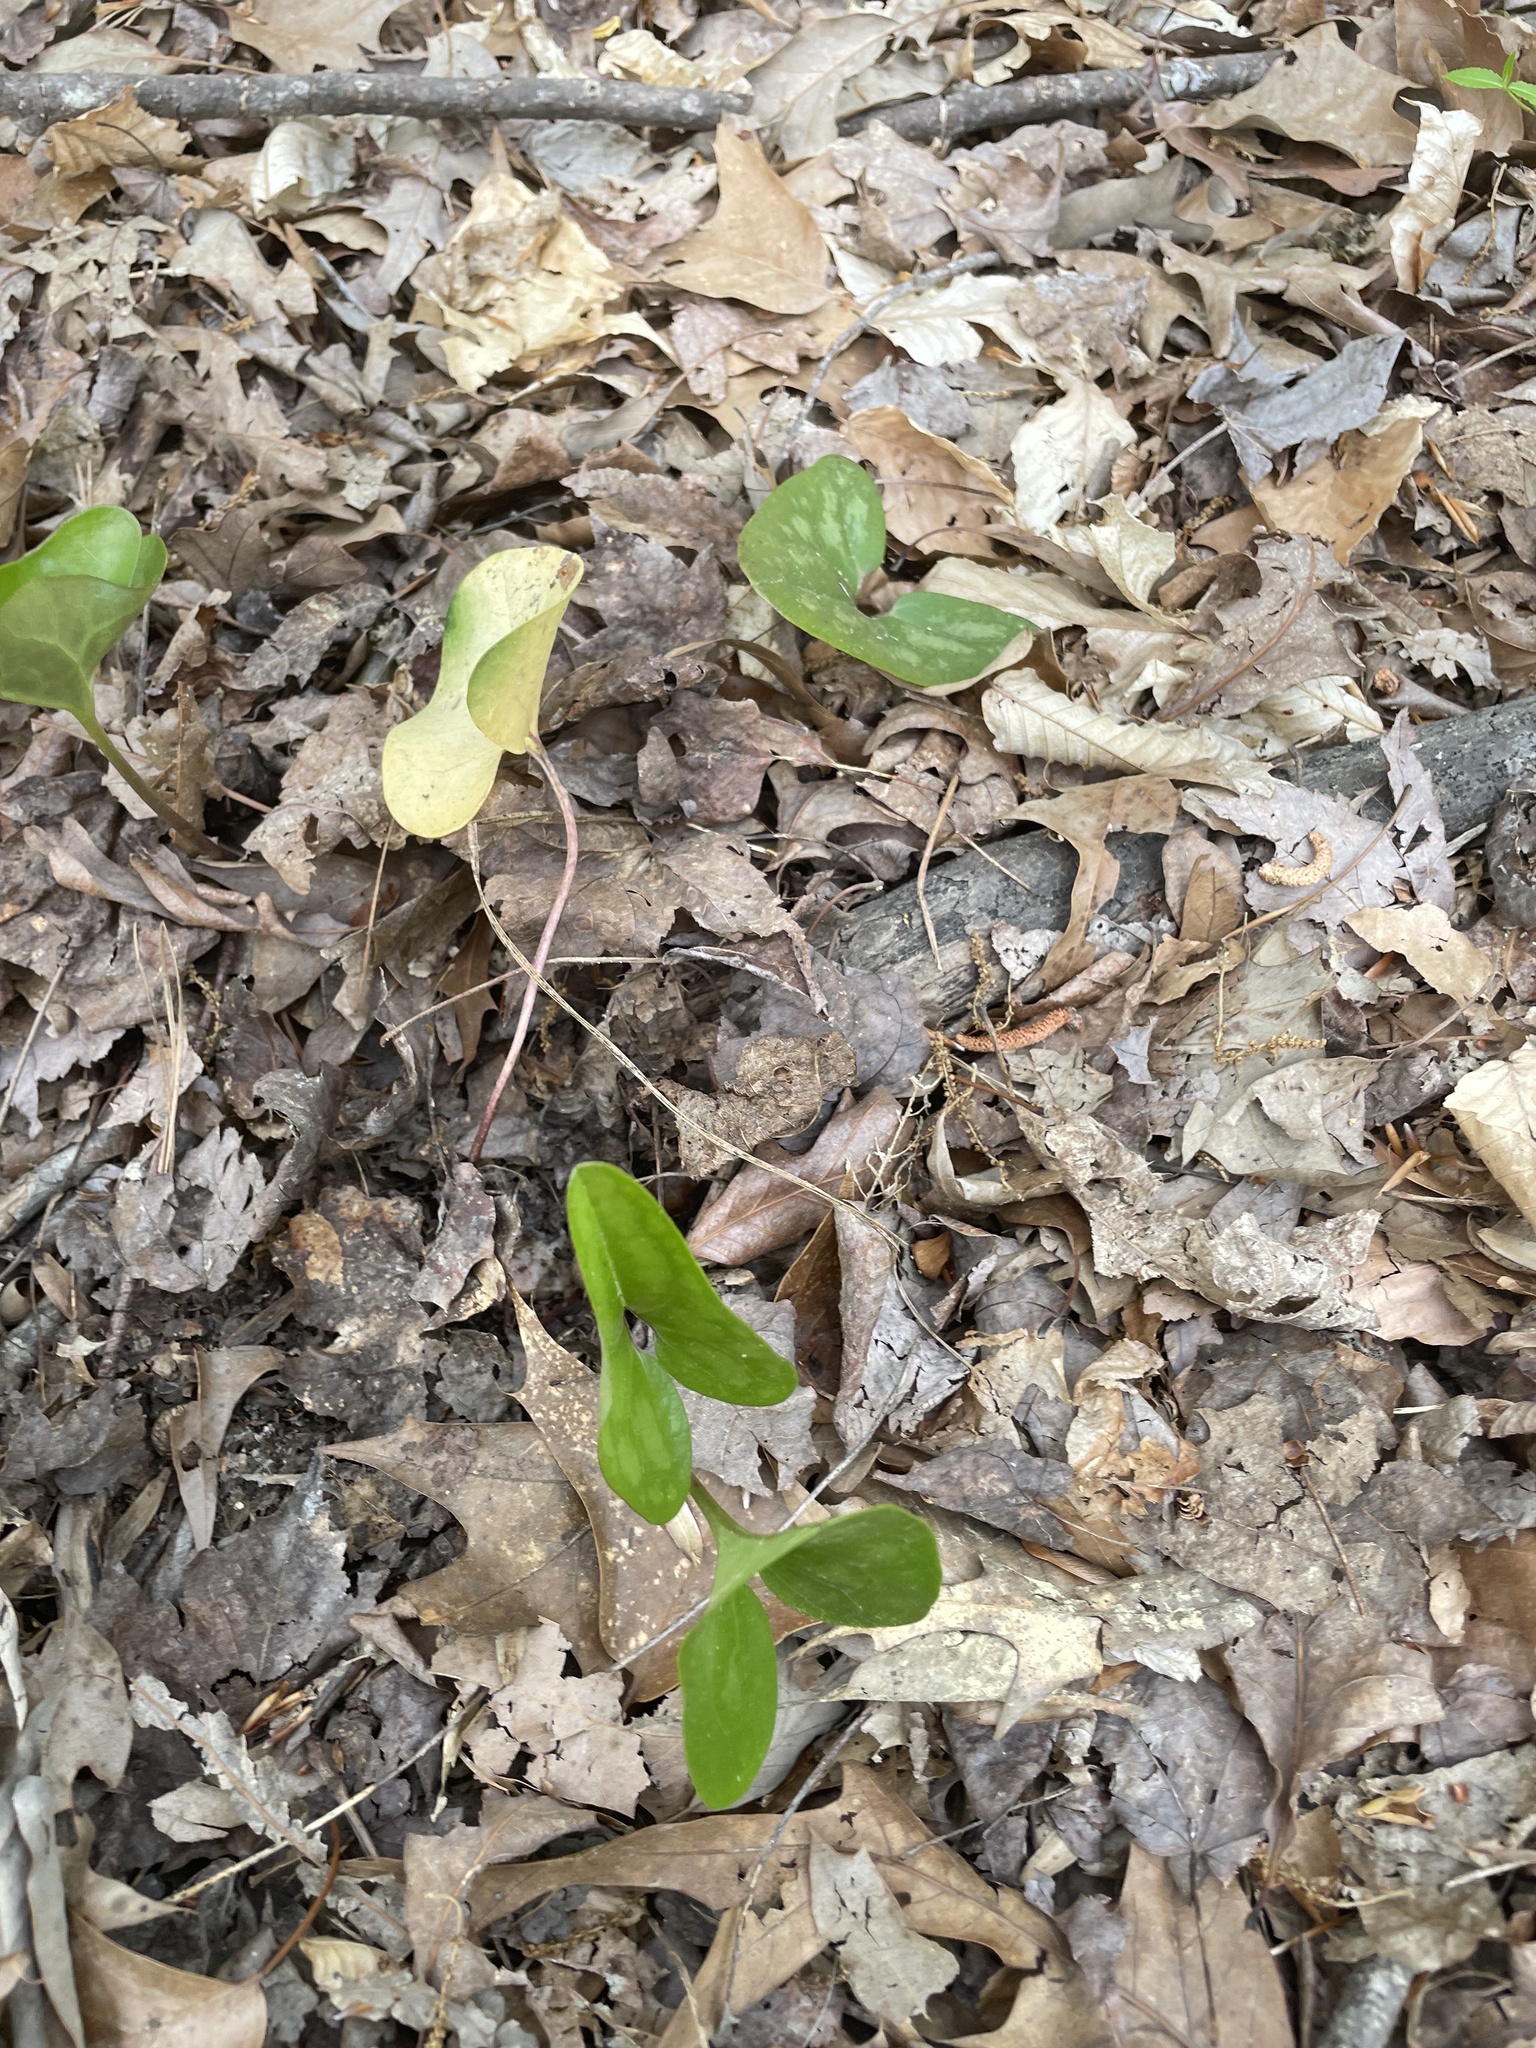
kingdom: Plantae
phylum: Tracheophyta
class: Magnoliopsida
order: Piperales
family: Aristolochiaceae
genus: Hexastylis
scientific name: Hexastylis arifolia
